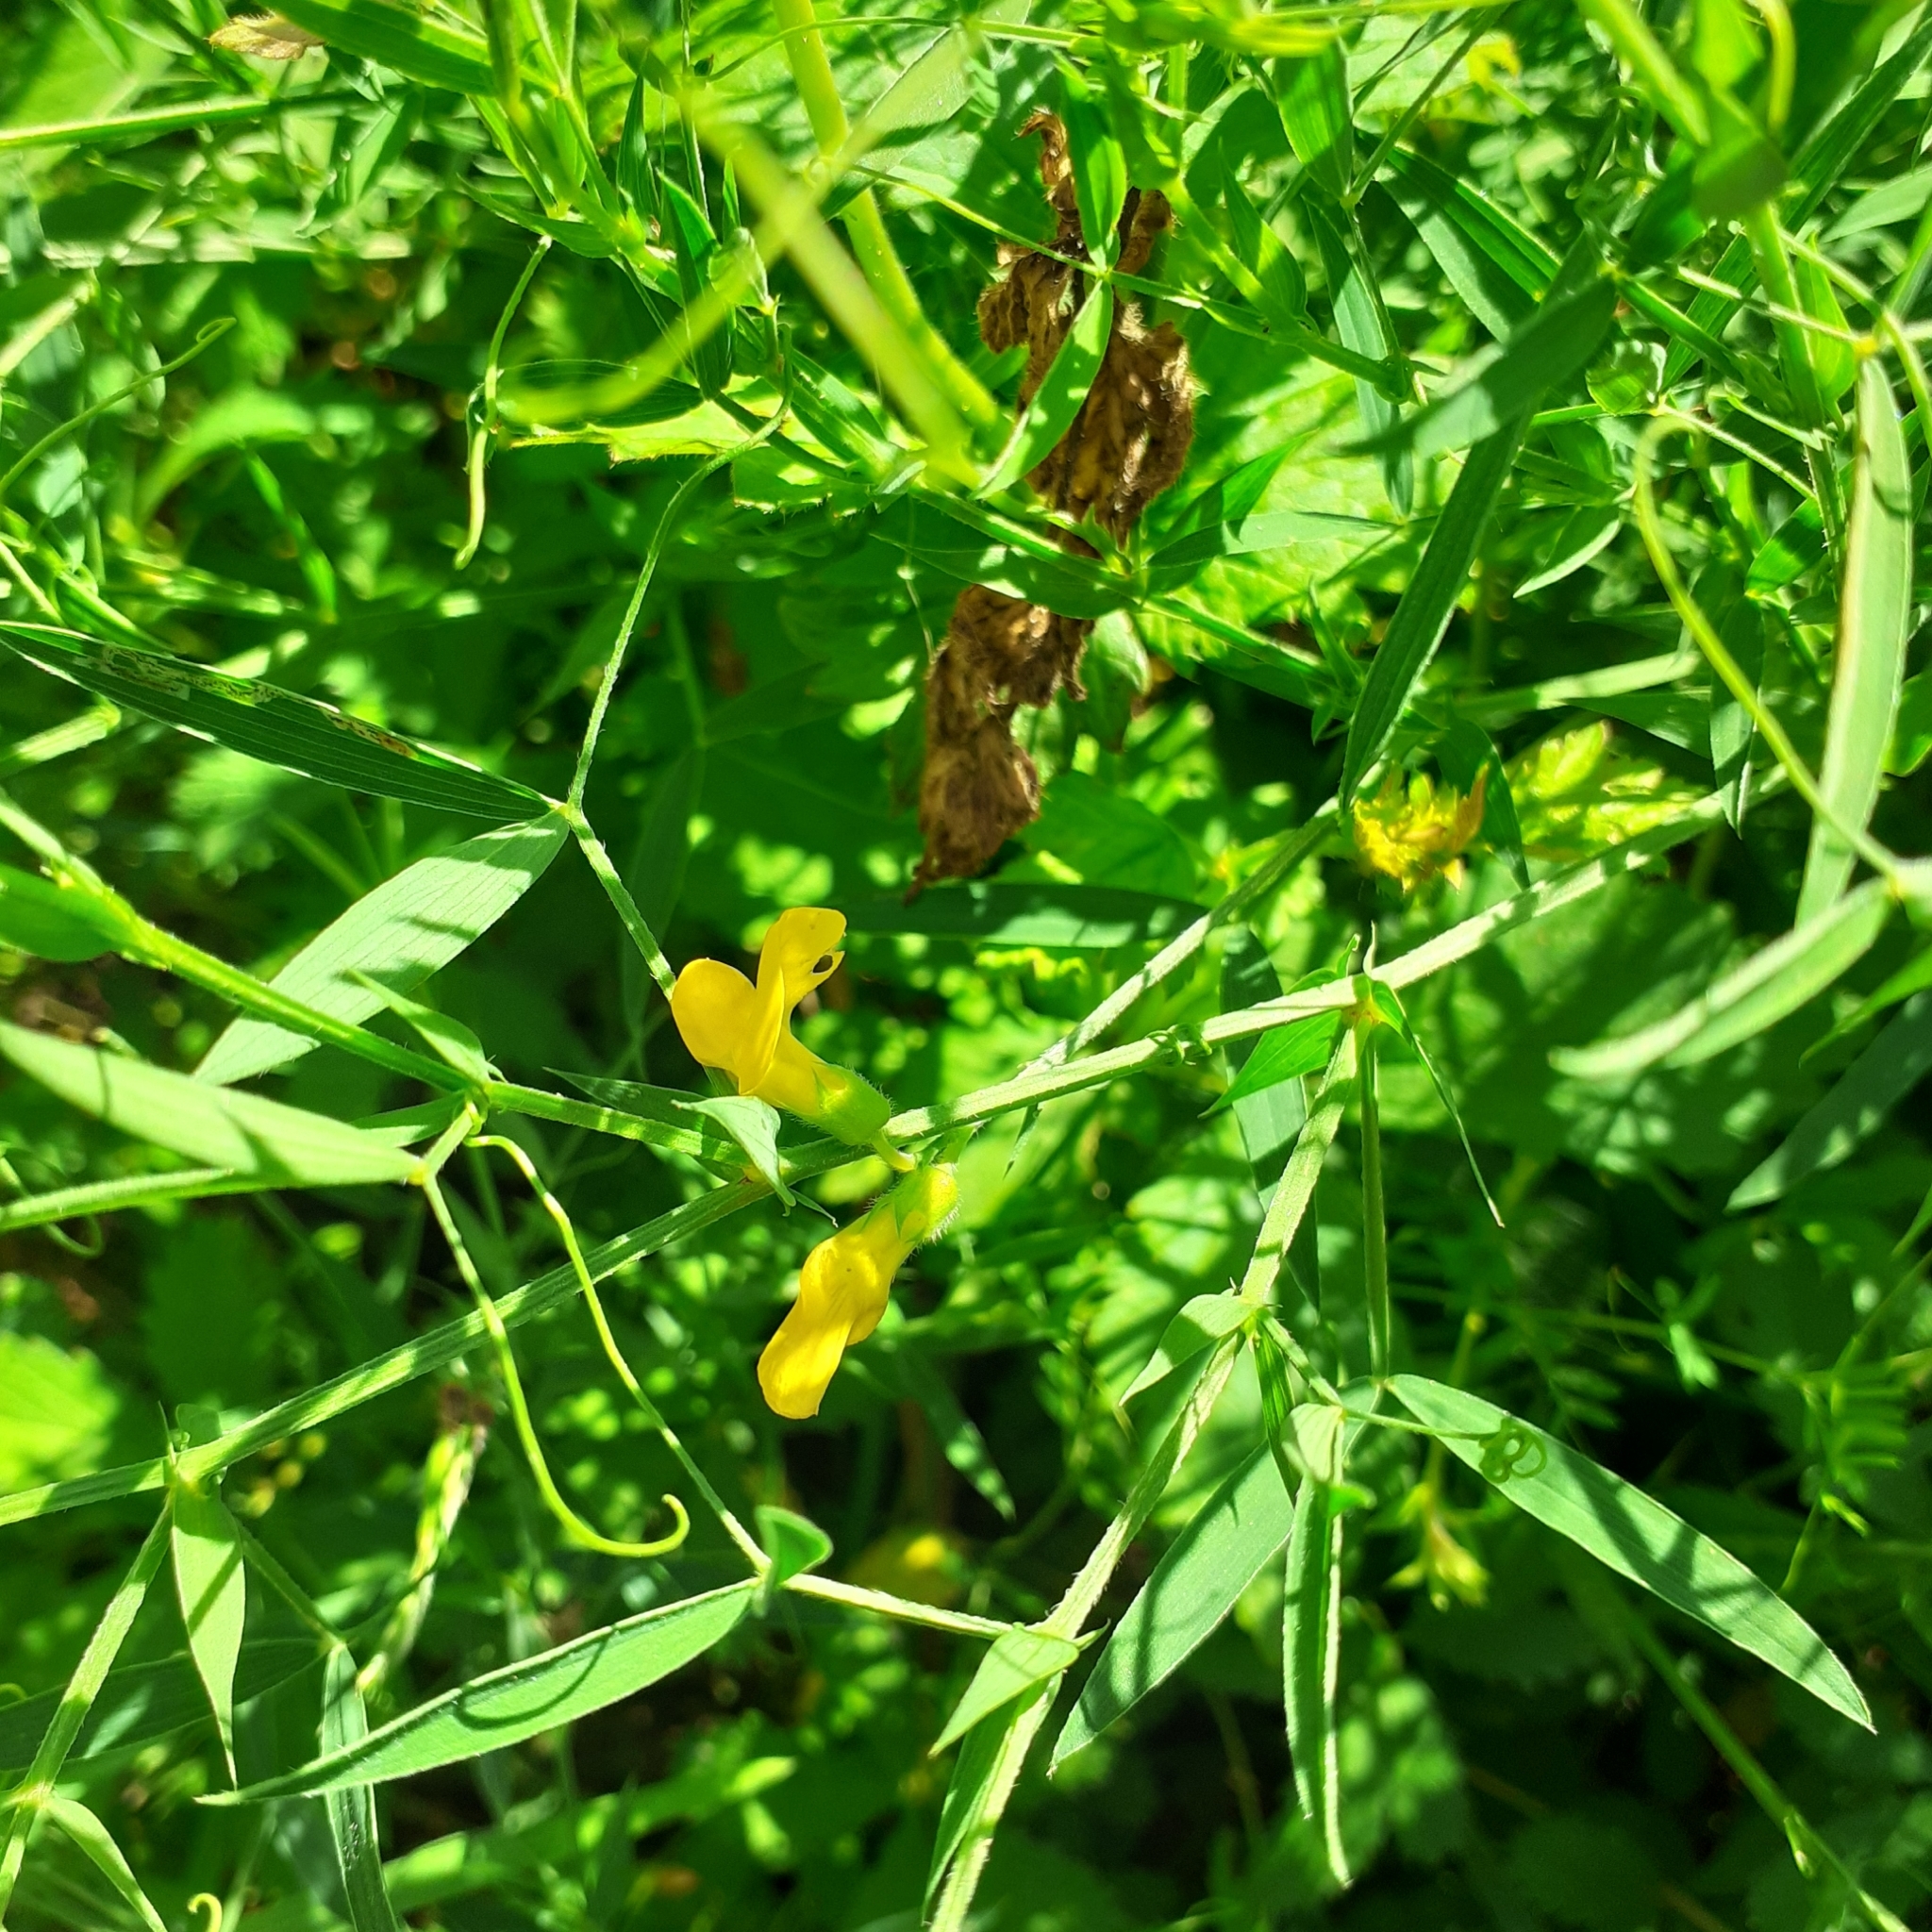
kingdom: Plantae
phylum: Tracheophyta
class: Magnoliopsida
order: Fabales
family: Fabaceae
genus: Lathyrus
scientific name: Lathyrus pratensis
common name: Meadow vetchling
